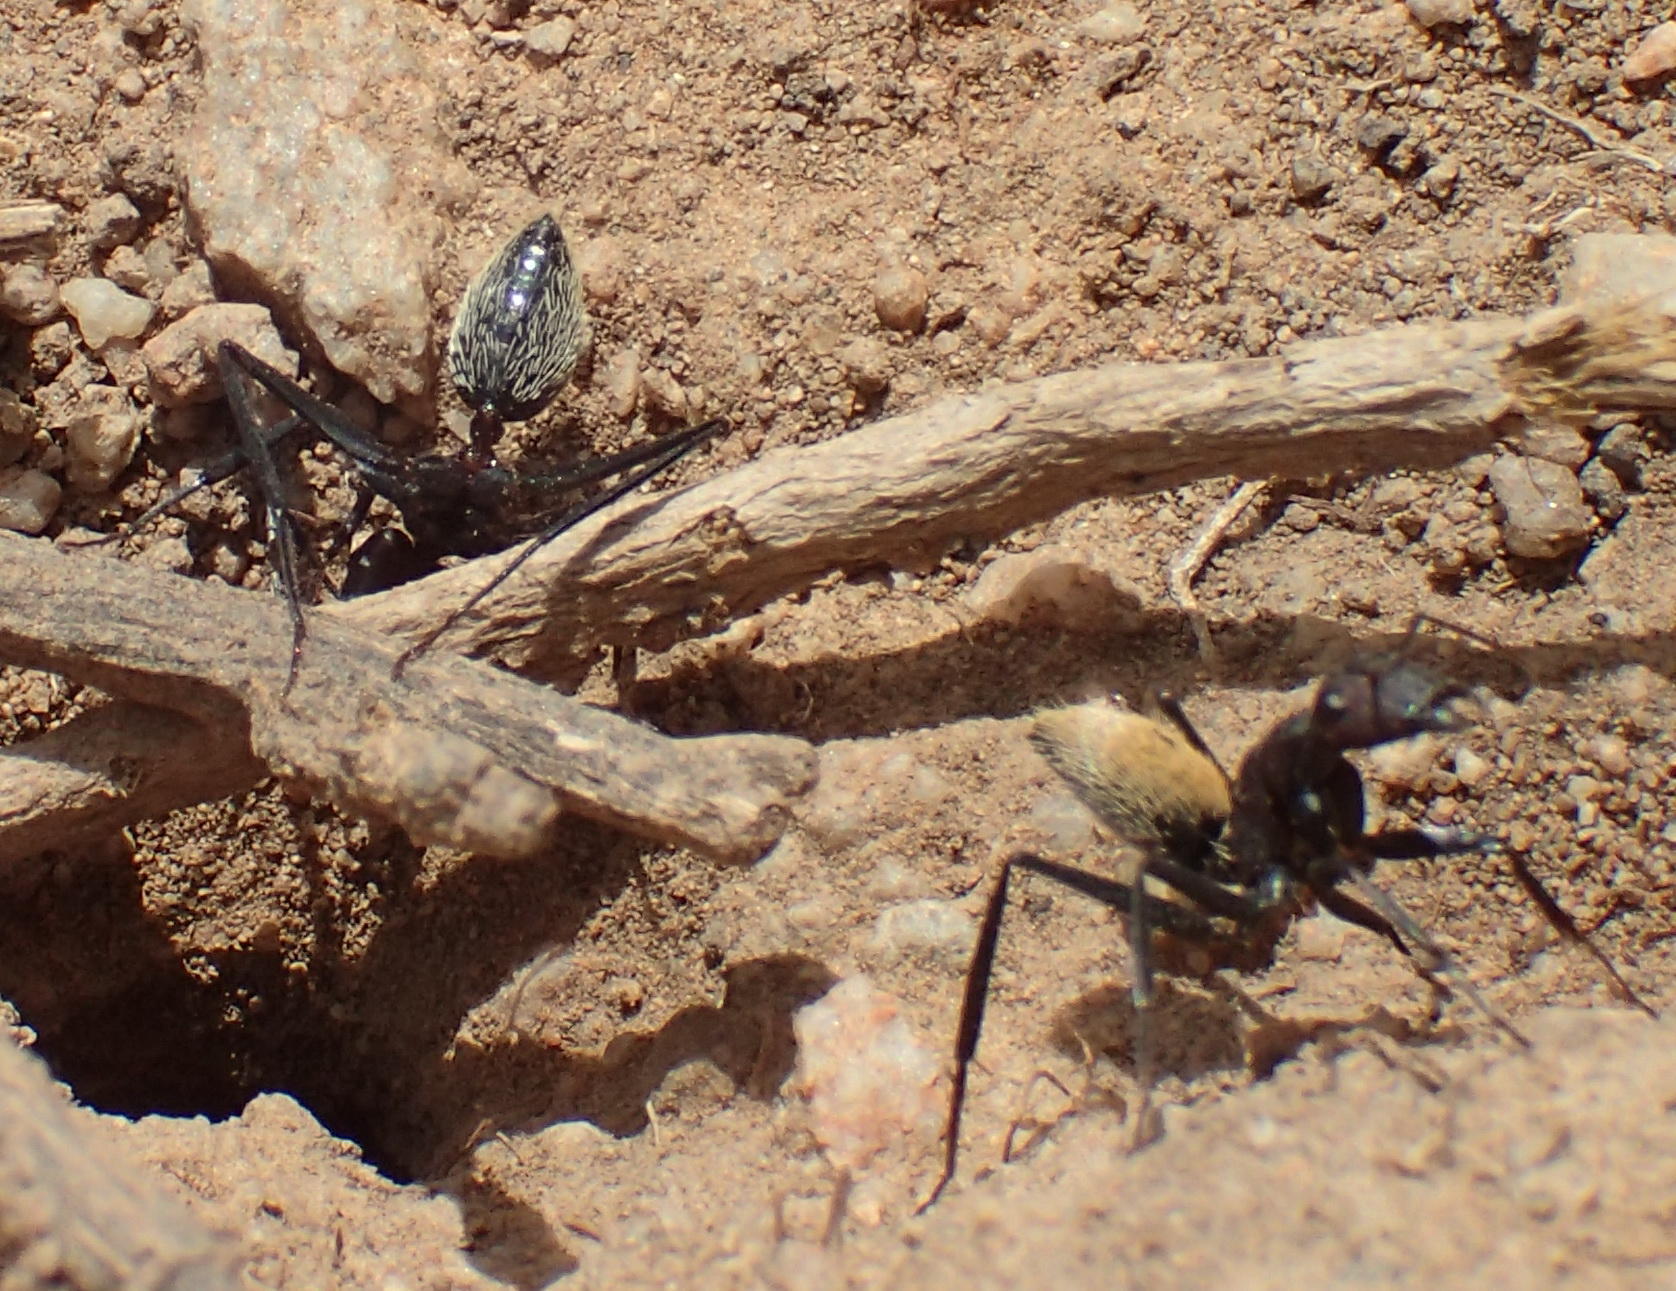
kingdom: Animalia
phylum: Arthropoda
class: Insecta
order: Hymenoptera
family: Formicidae
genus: Camponotus
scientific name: Camponotus fulvopilosus
